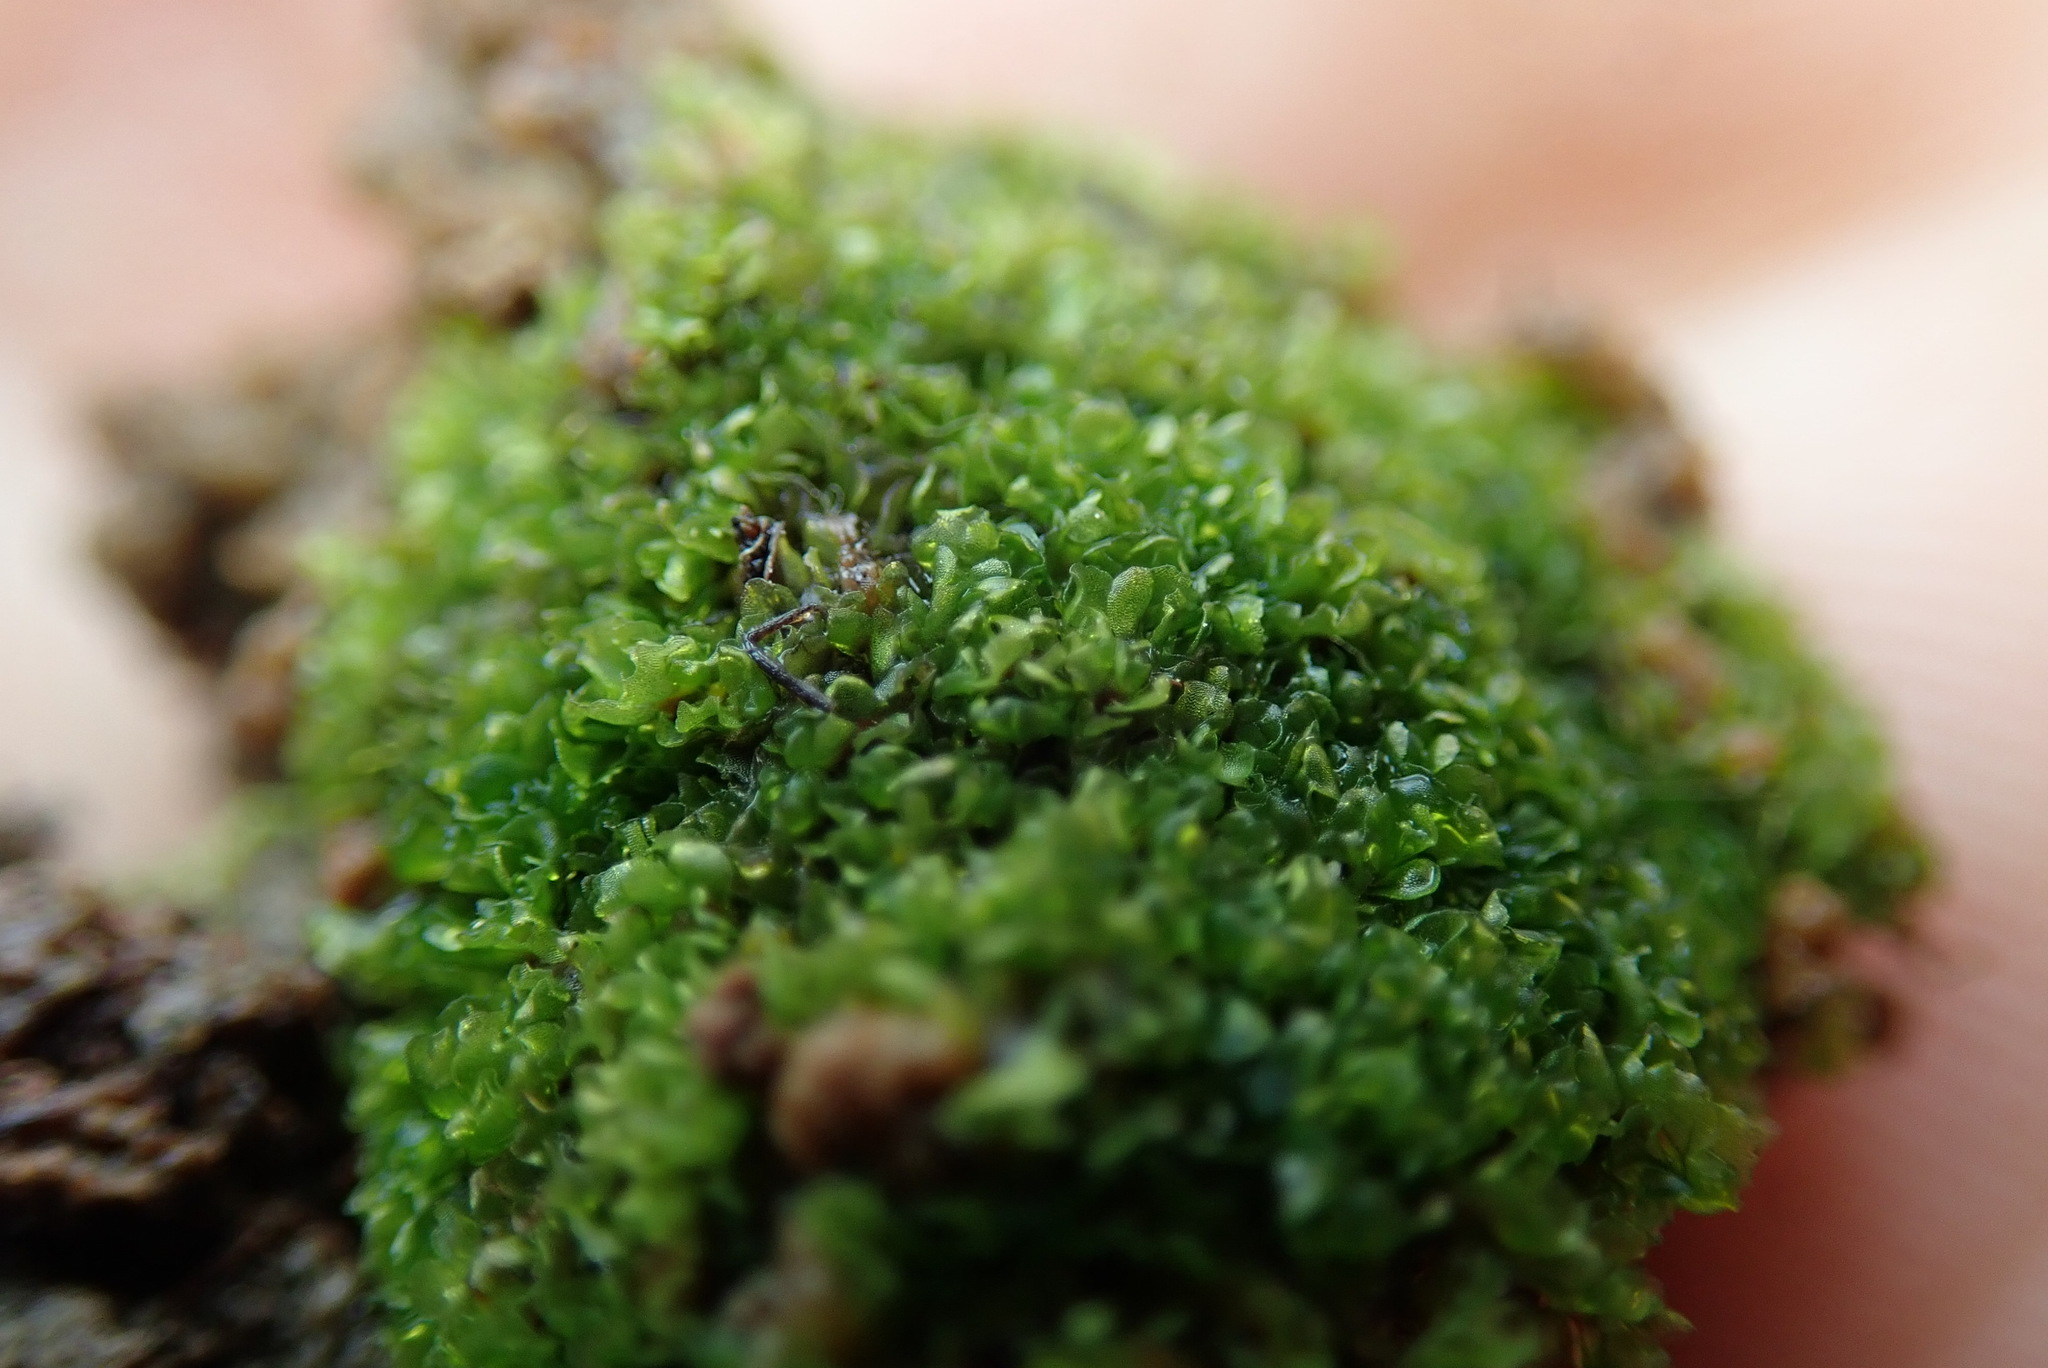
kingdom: Plantae
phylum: Marchantiophyta
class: Jungermanniopsida
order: Fossombroniales
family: Fossombroniaceae
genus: Fossombronia
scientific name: Fossombronia foveolata
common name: Pitted frillwort
